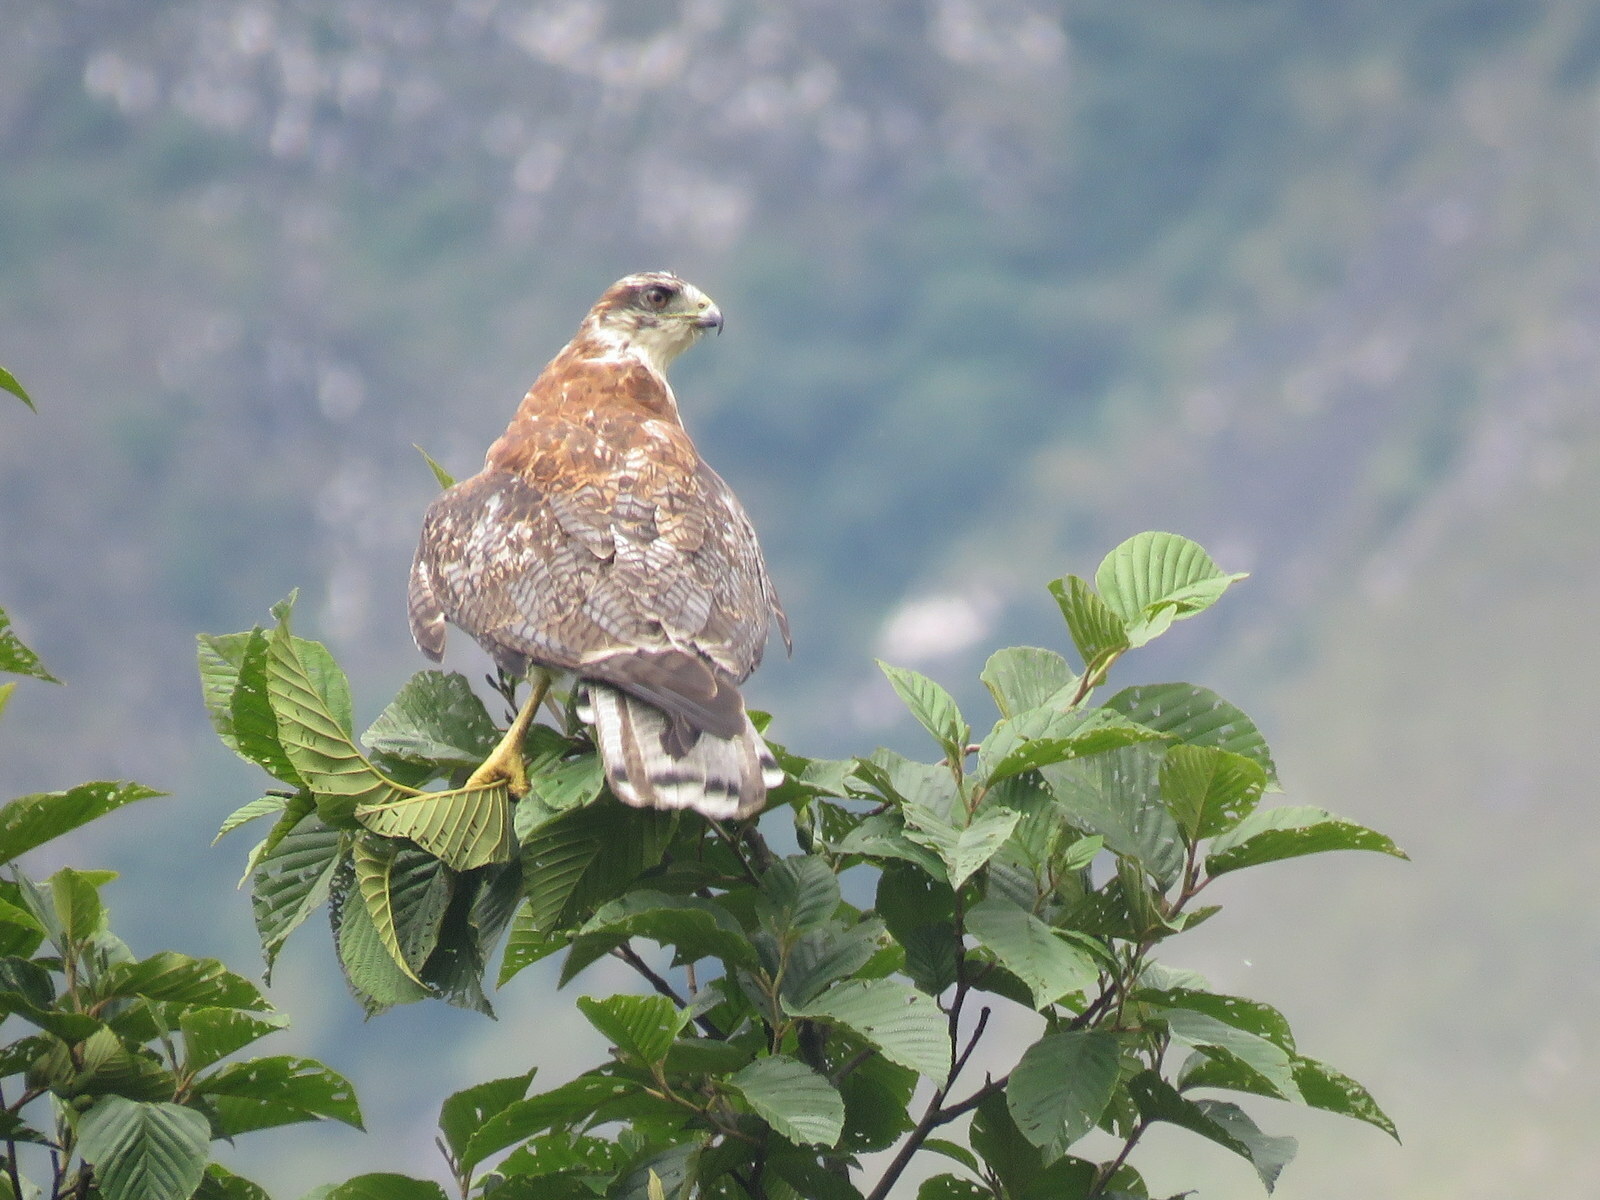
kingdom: Animalia
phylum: Chordata
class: Aves
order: Accipitriformes
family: Accipitridae
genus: Buteo
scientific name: Buteo polyosoma
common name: Variable hawk
